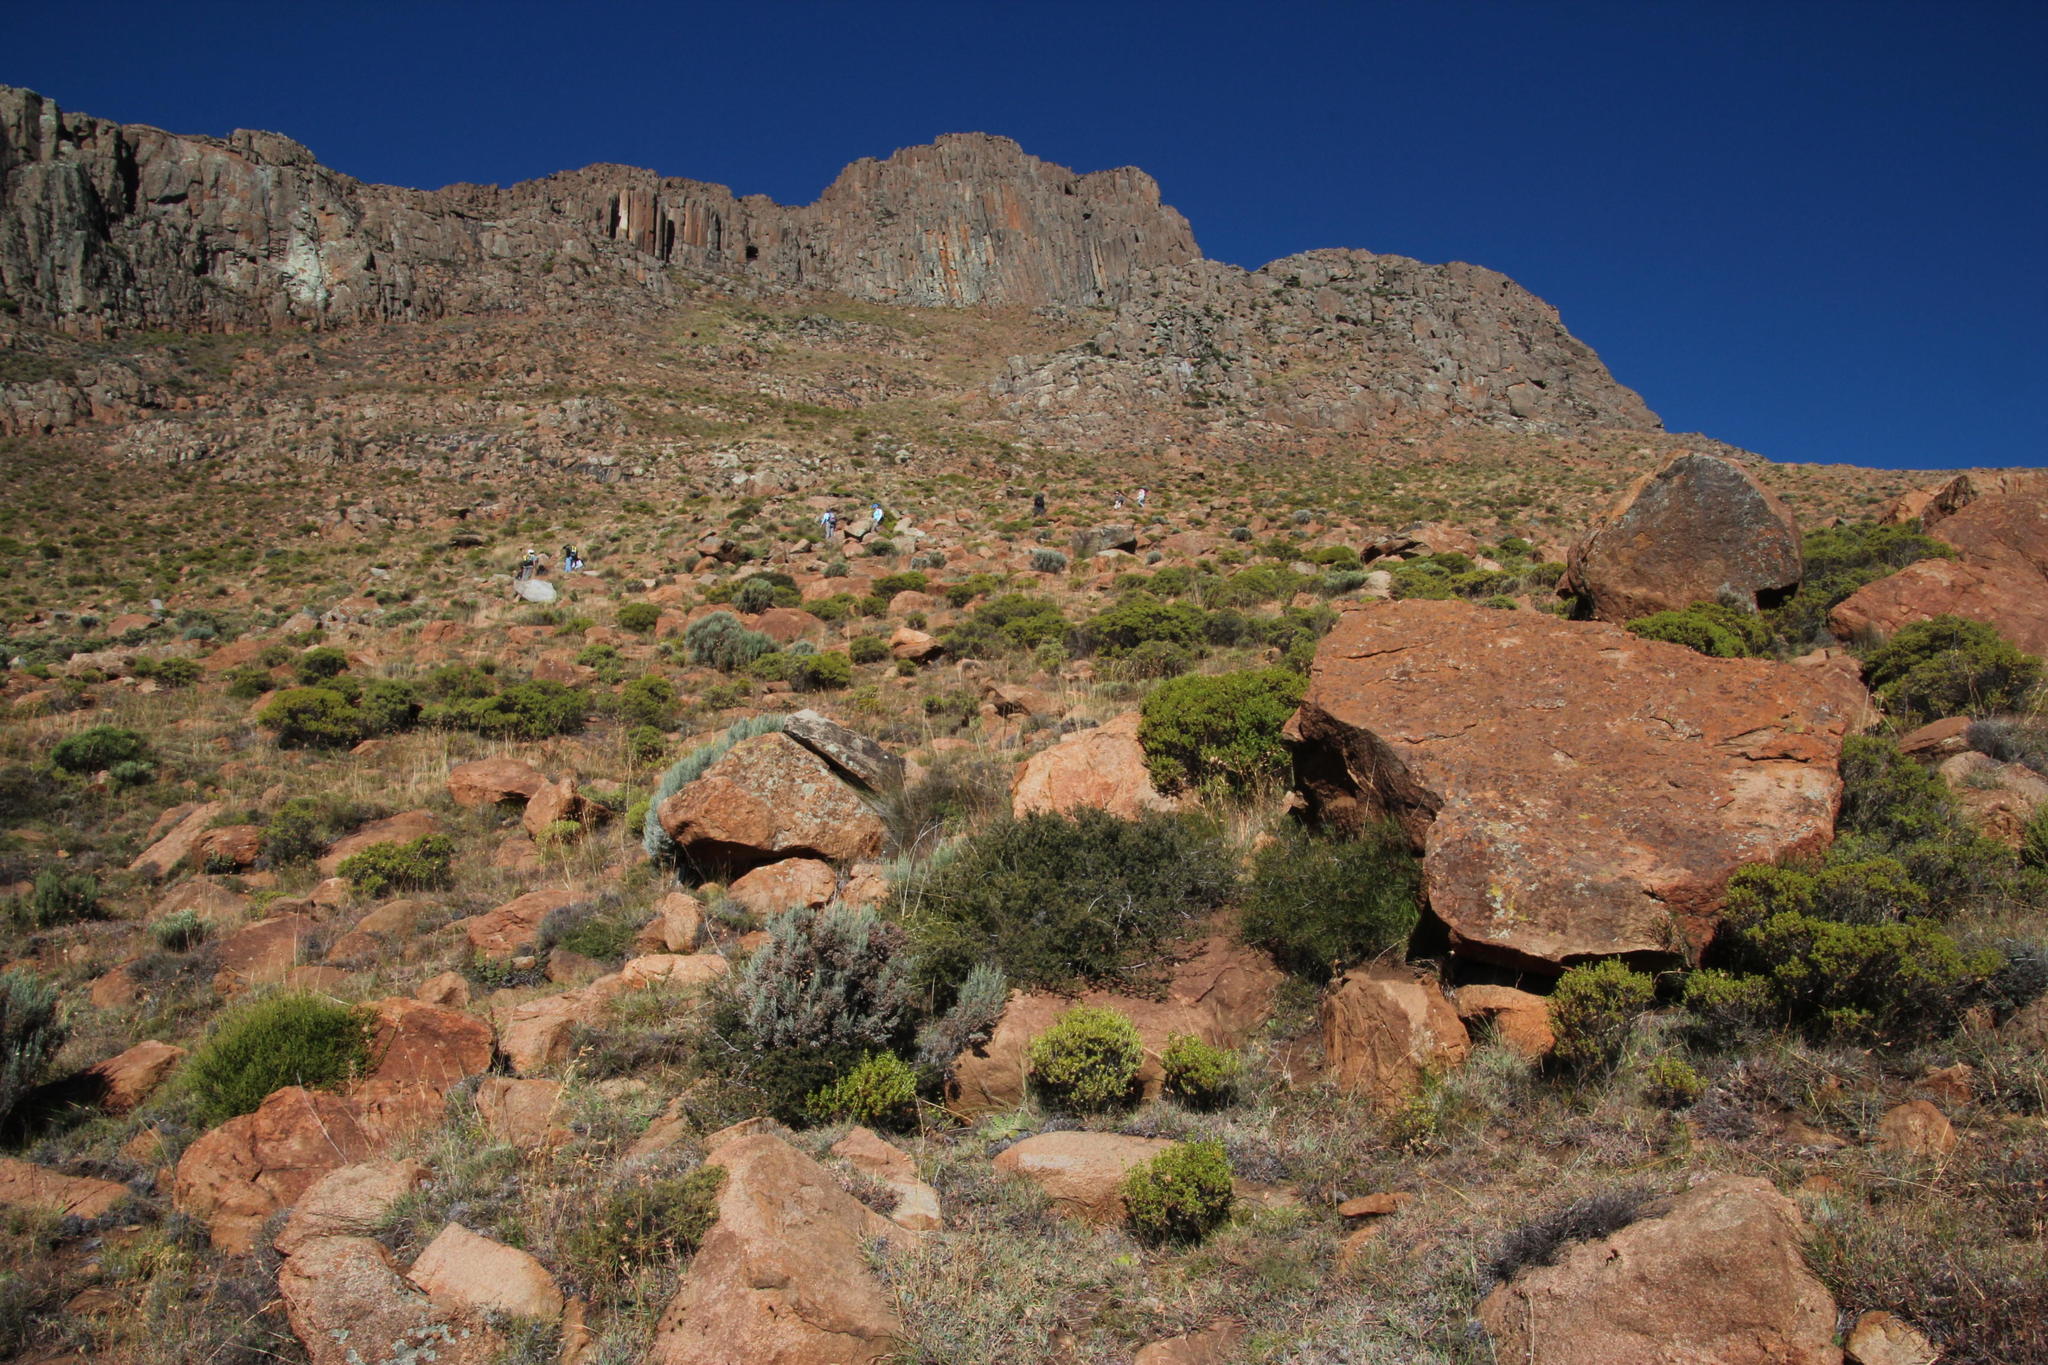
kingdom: Plantae
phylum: Tracheophyta
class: Magnoliopsida
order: Sapindales
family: Anacardiaceae
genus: Searsia
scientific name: Searsia dregeana
